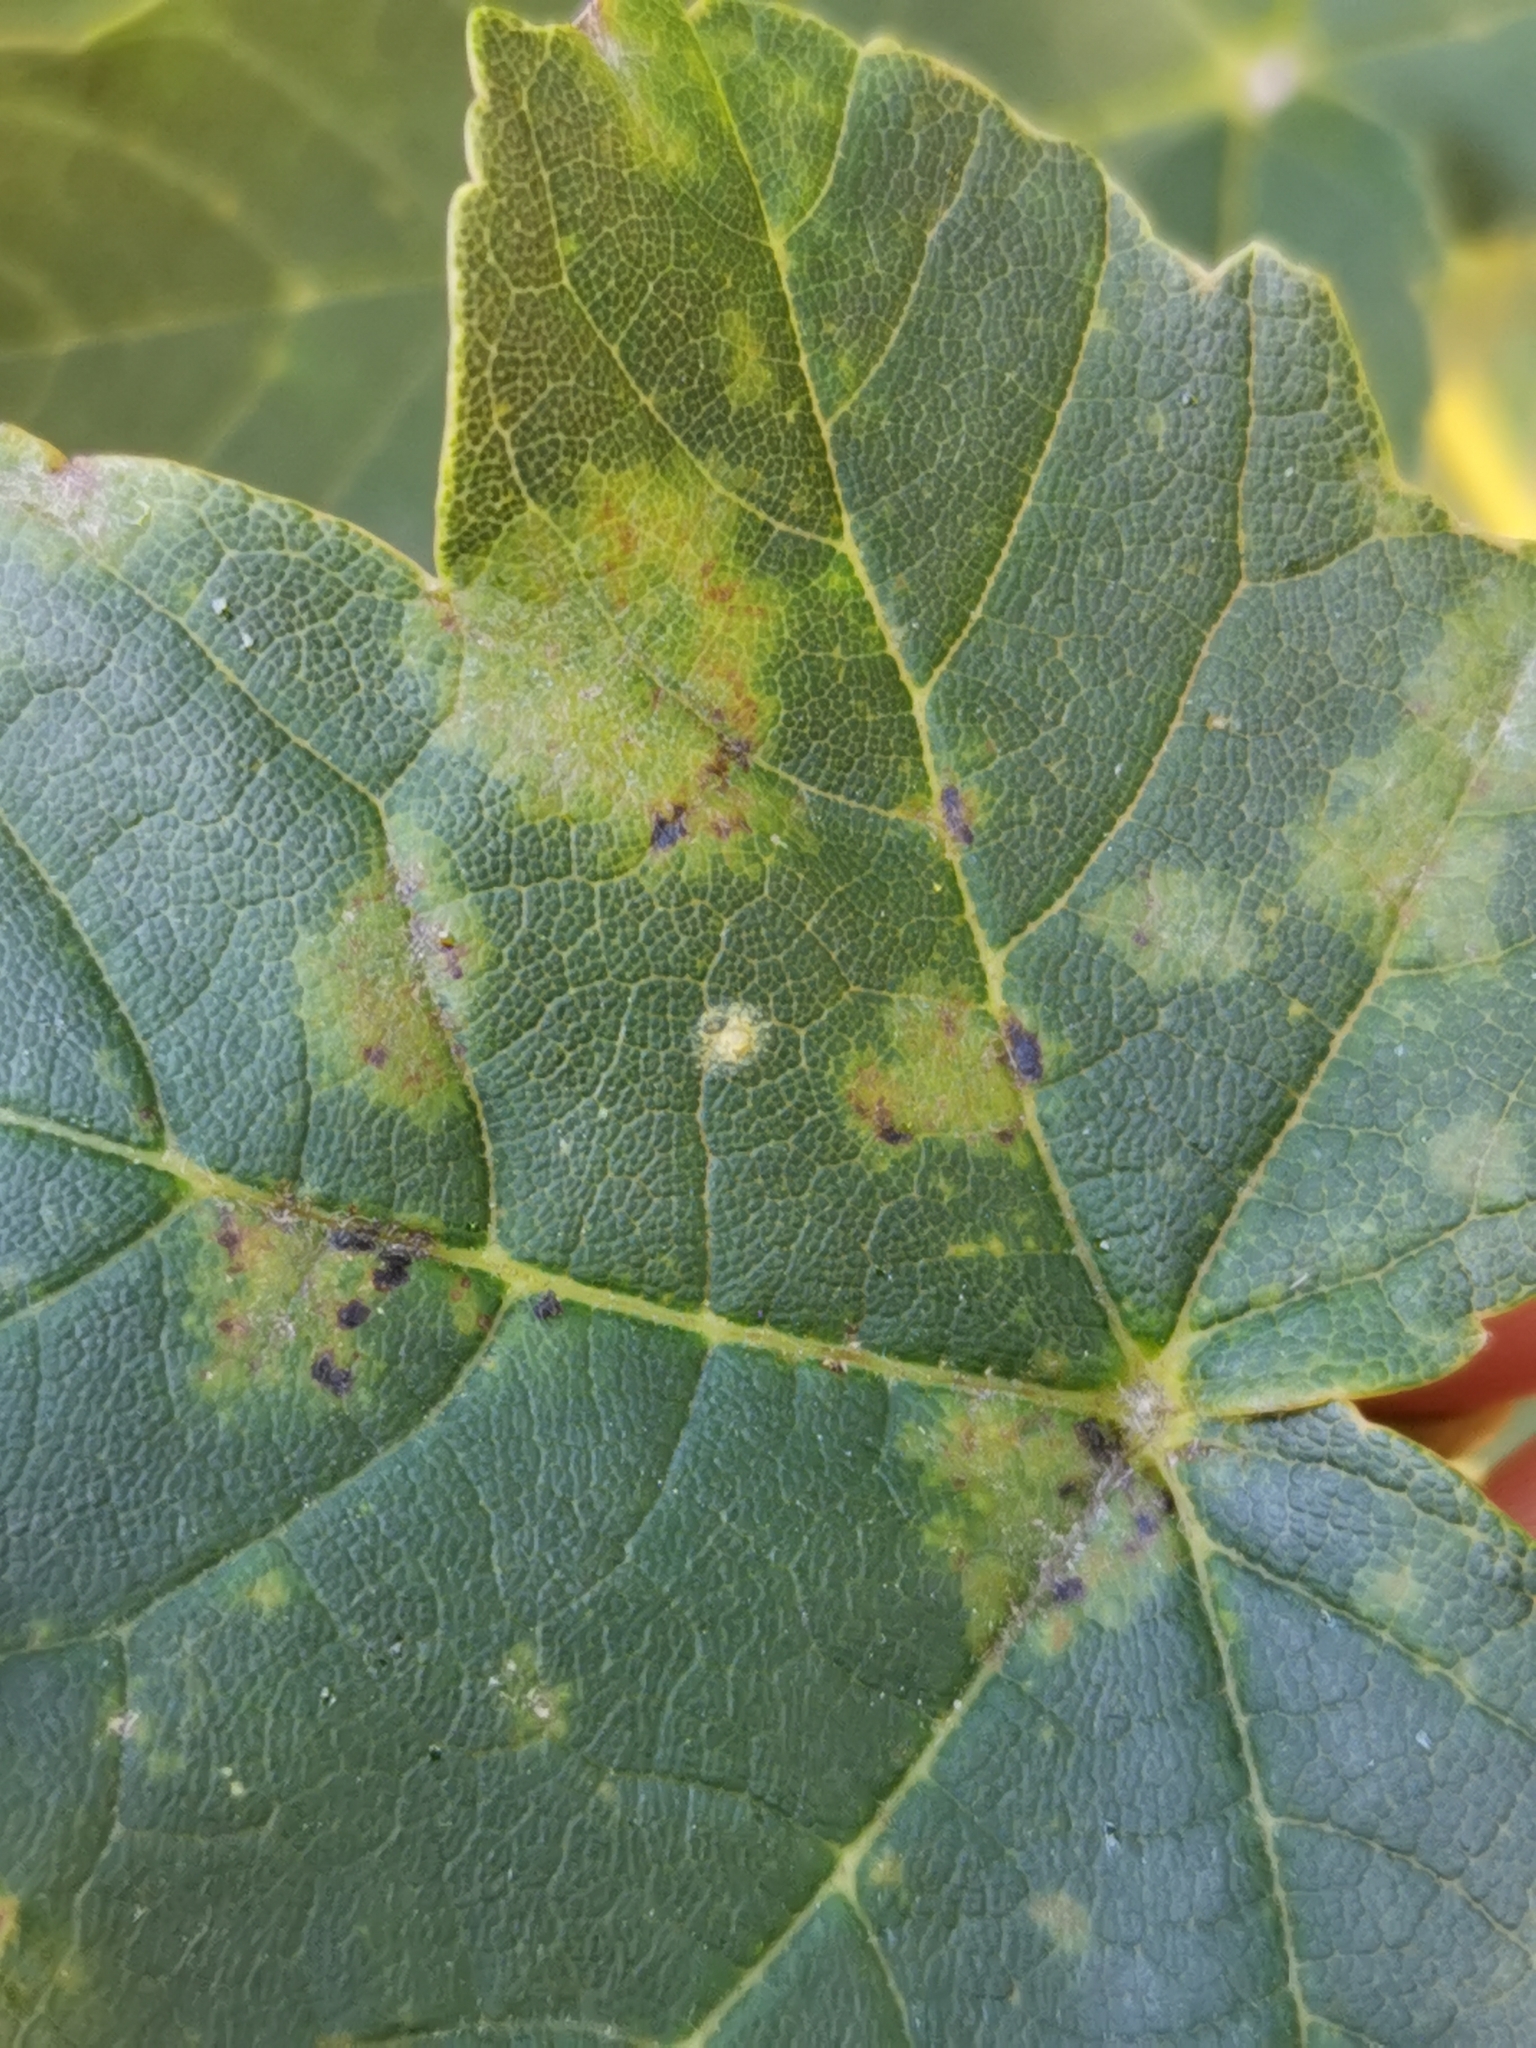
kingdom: Fungi
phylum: Ascomycota
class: Leotiomycetes
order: Rhytismatales
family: Rhytismataceae
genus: Rhytisma
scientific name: Rhytisma acerinum
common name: European tar spot
